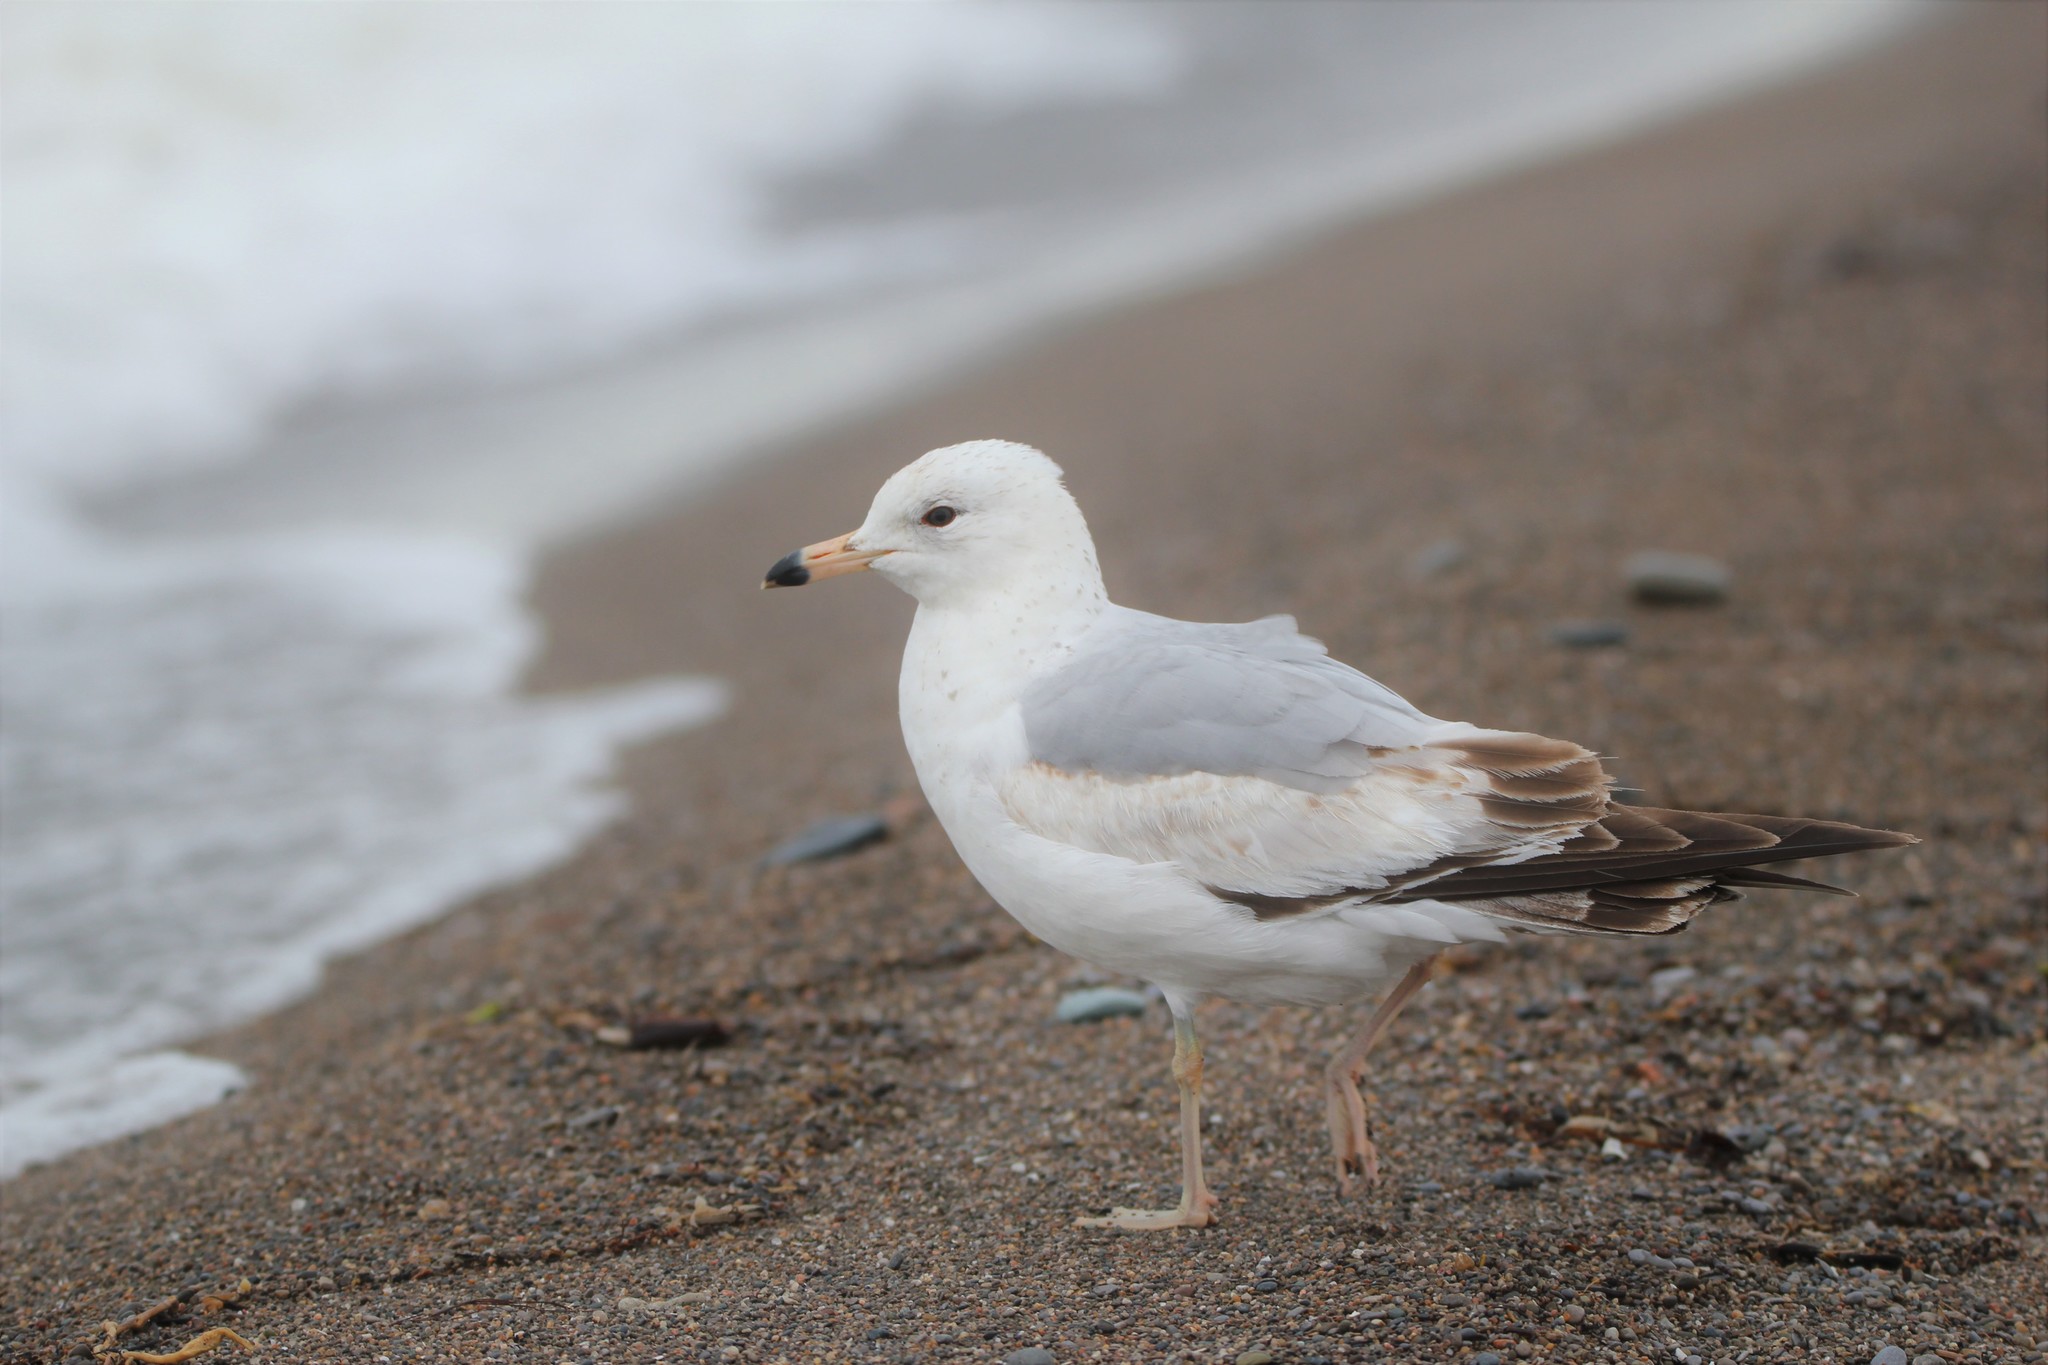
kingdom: Animalia
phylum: Chordata
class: Aves
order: Charadriiformes
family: Laridae
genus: Larus
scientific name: Larus delawarensis
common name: Ring-billed gull
